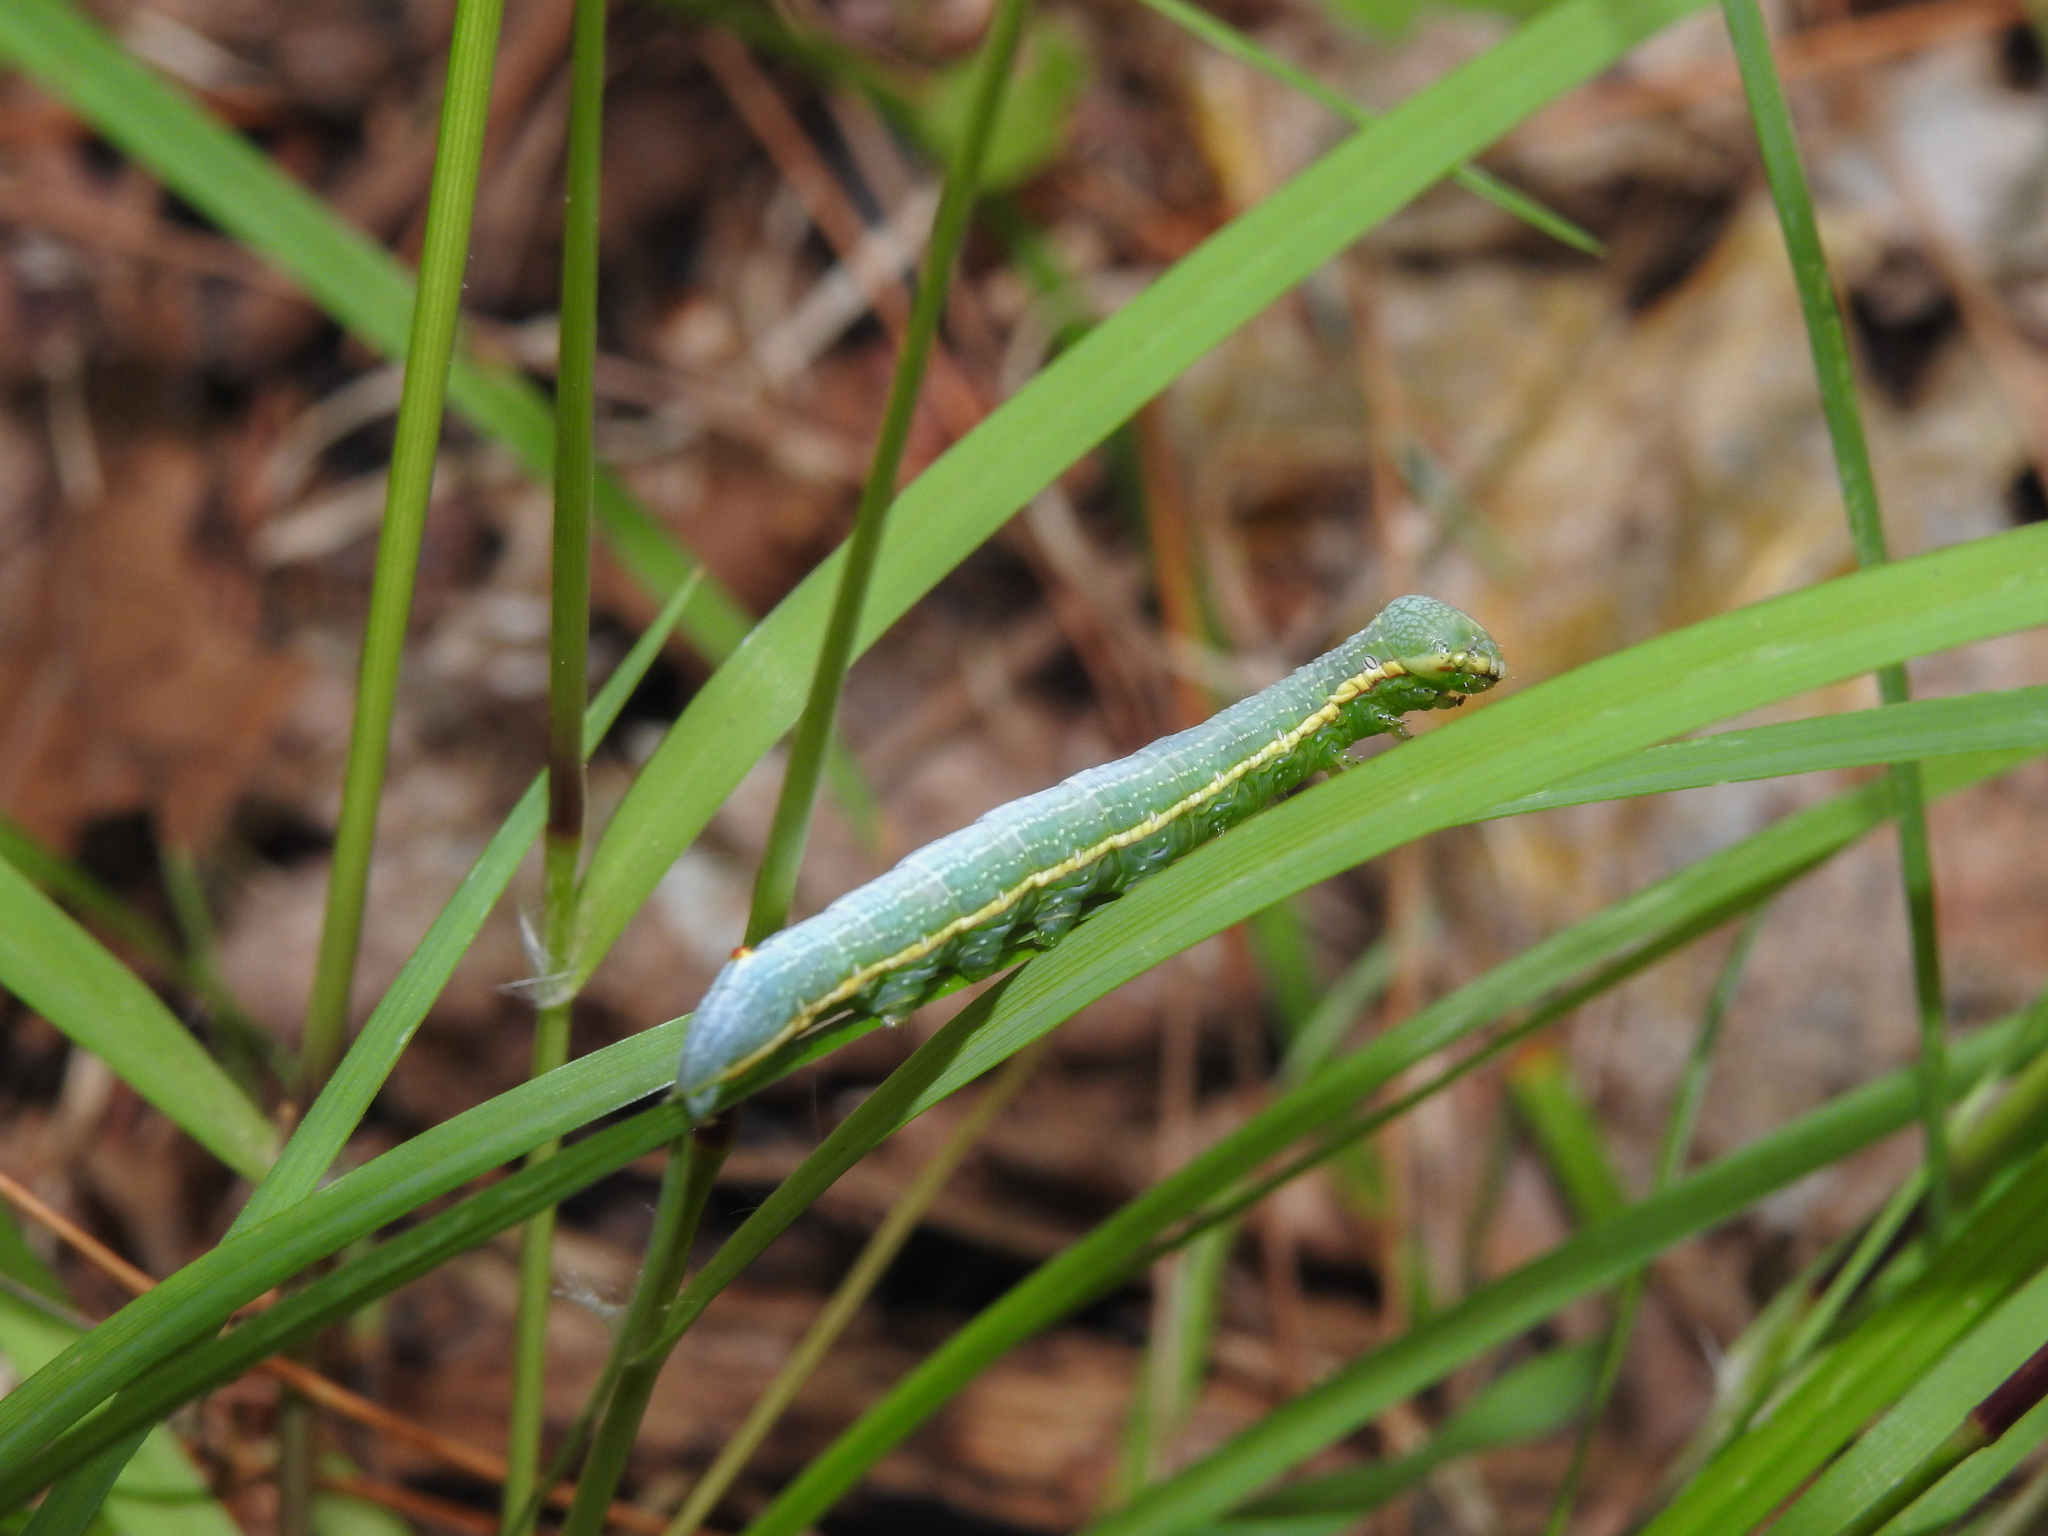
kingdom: Animalia
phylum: Arthropoda
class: Insecta
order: Lepidoptera
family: Notodontidae
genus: Paraeschra
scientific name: Paraeschra georgica
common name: Georgian prominent
